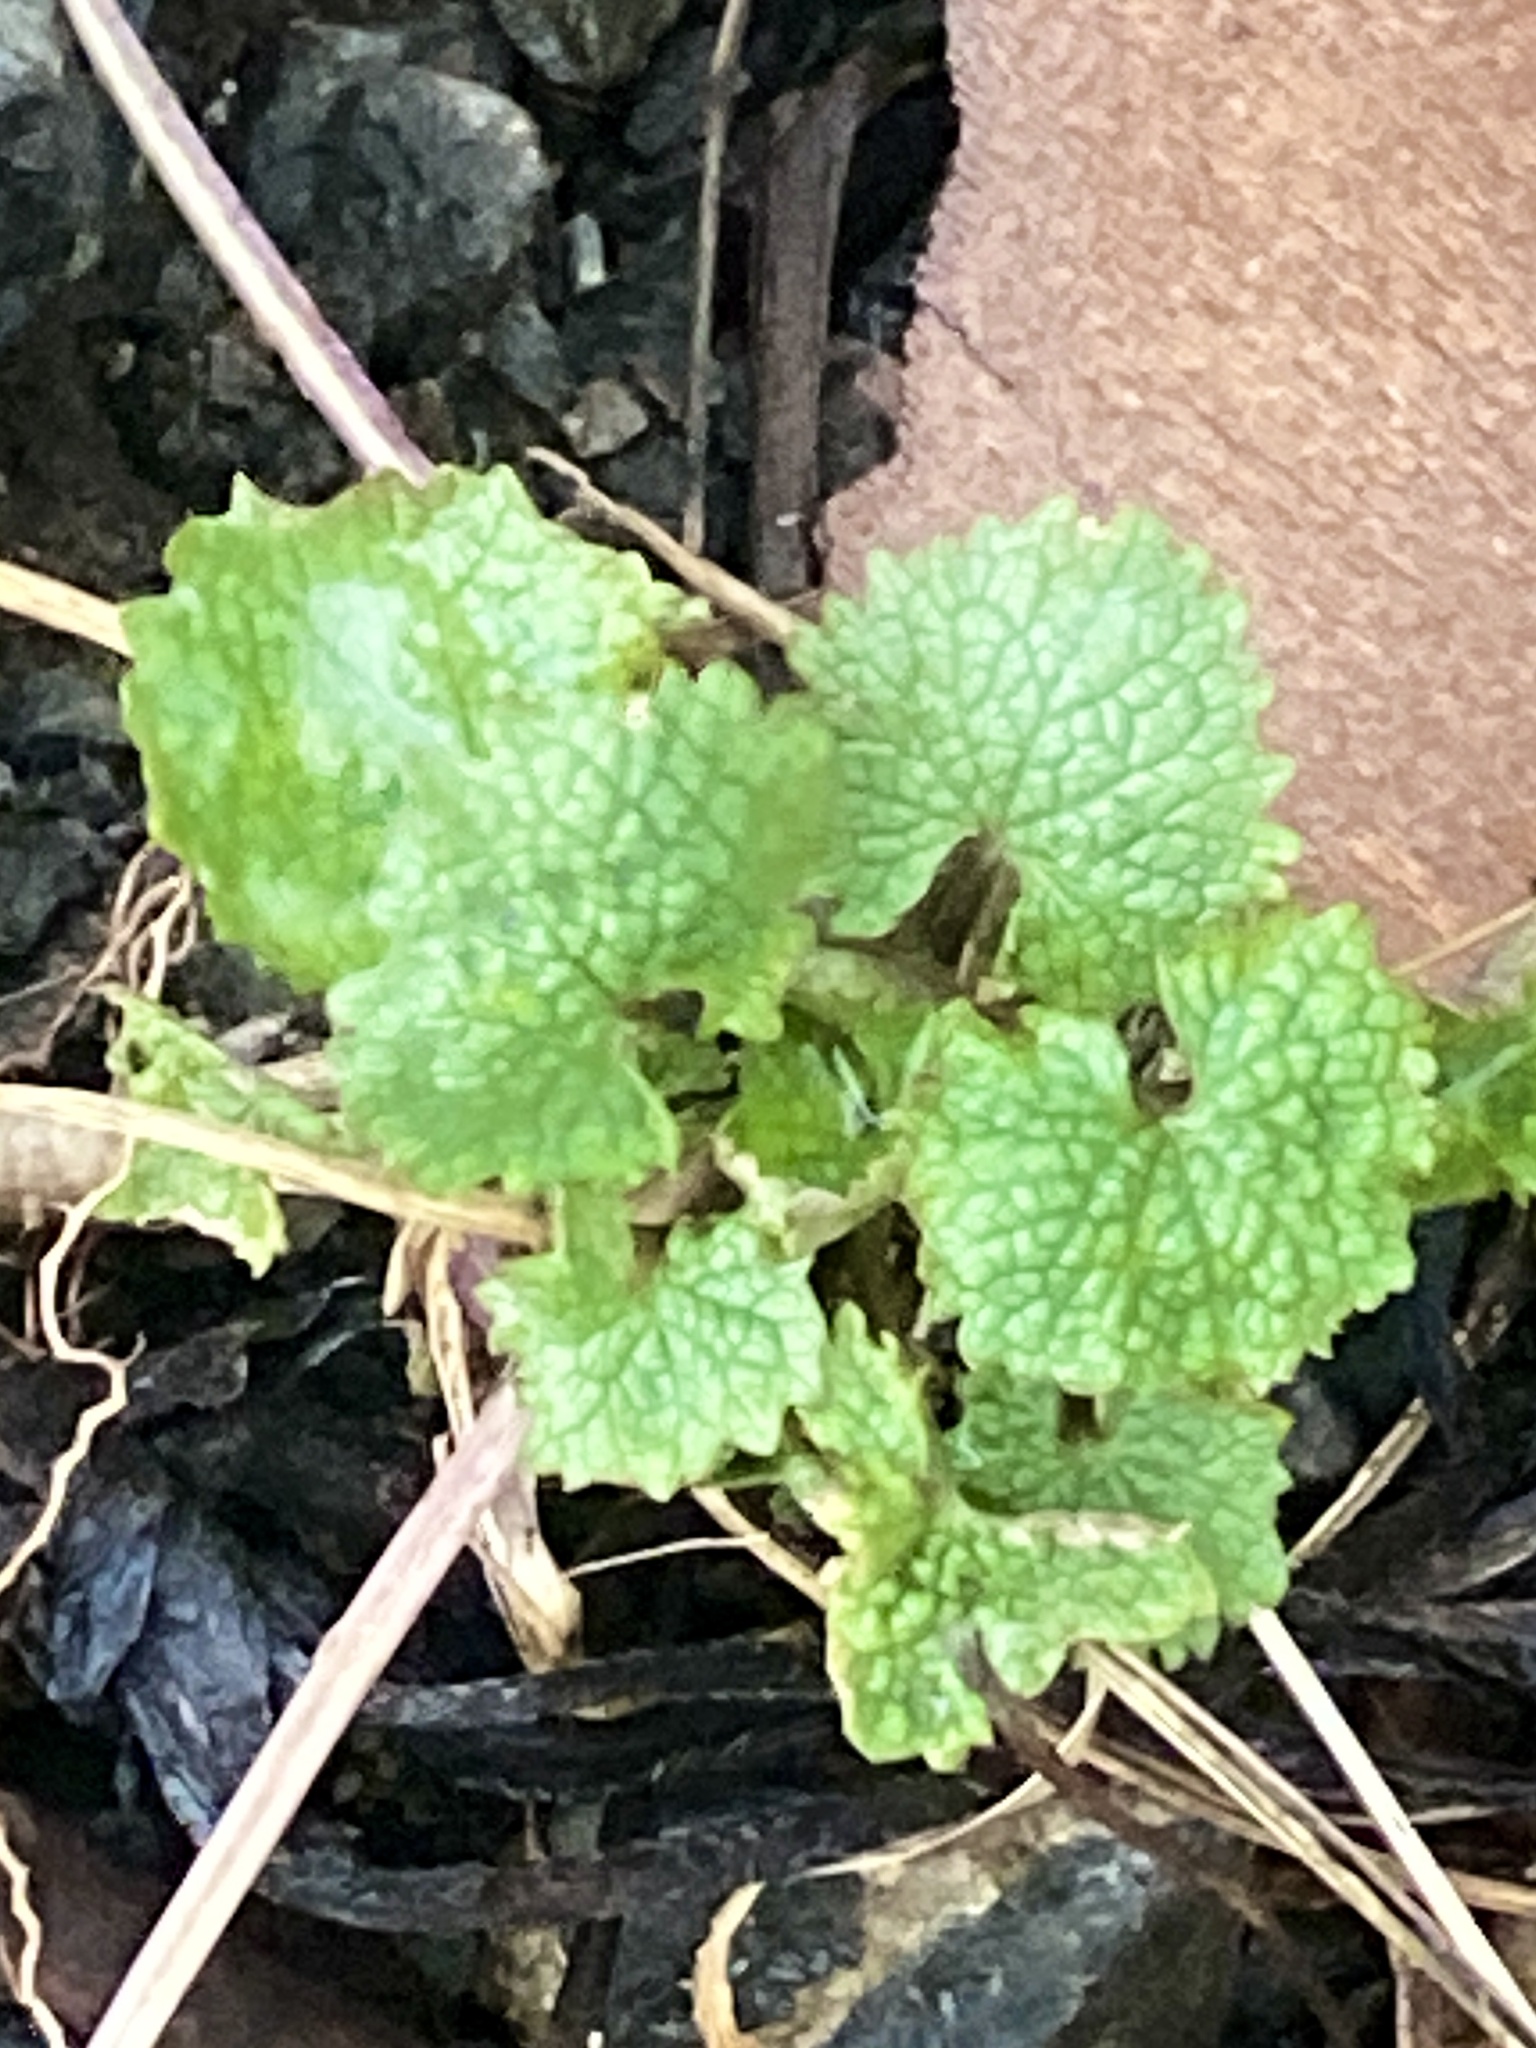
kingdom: Plantae
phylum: Tracheophyta
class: Magnoliopsida
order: Brassicales
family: Brassicaceae
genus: Alliaria
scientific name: Alliaria petiolata
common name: Garlic mustard
